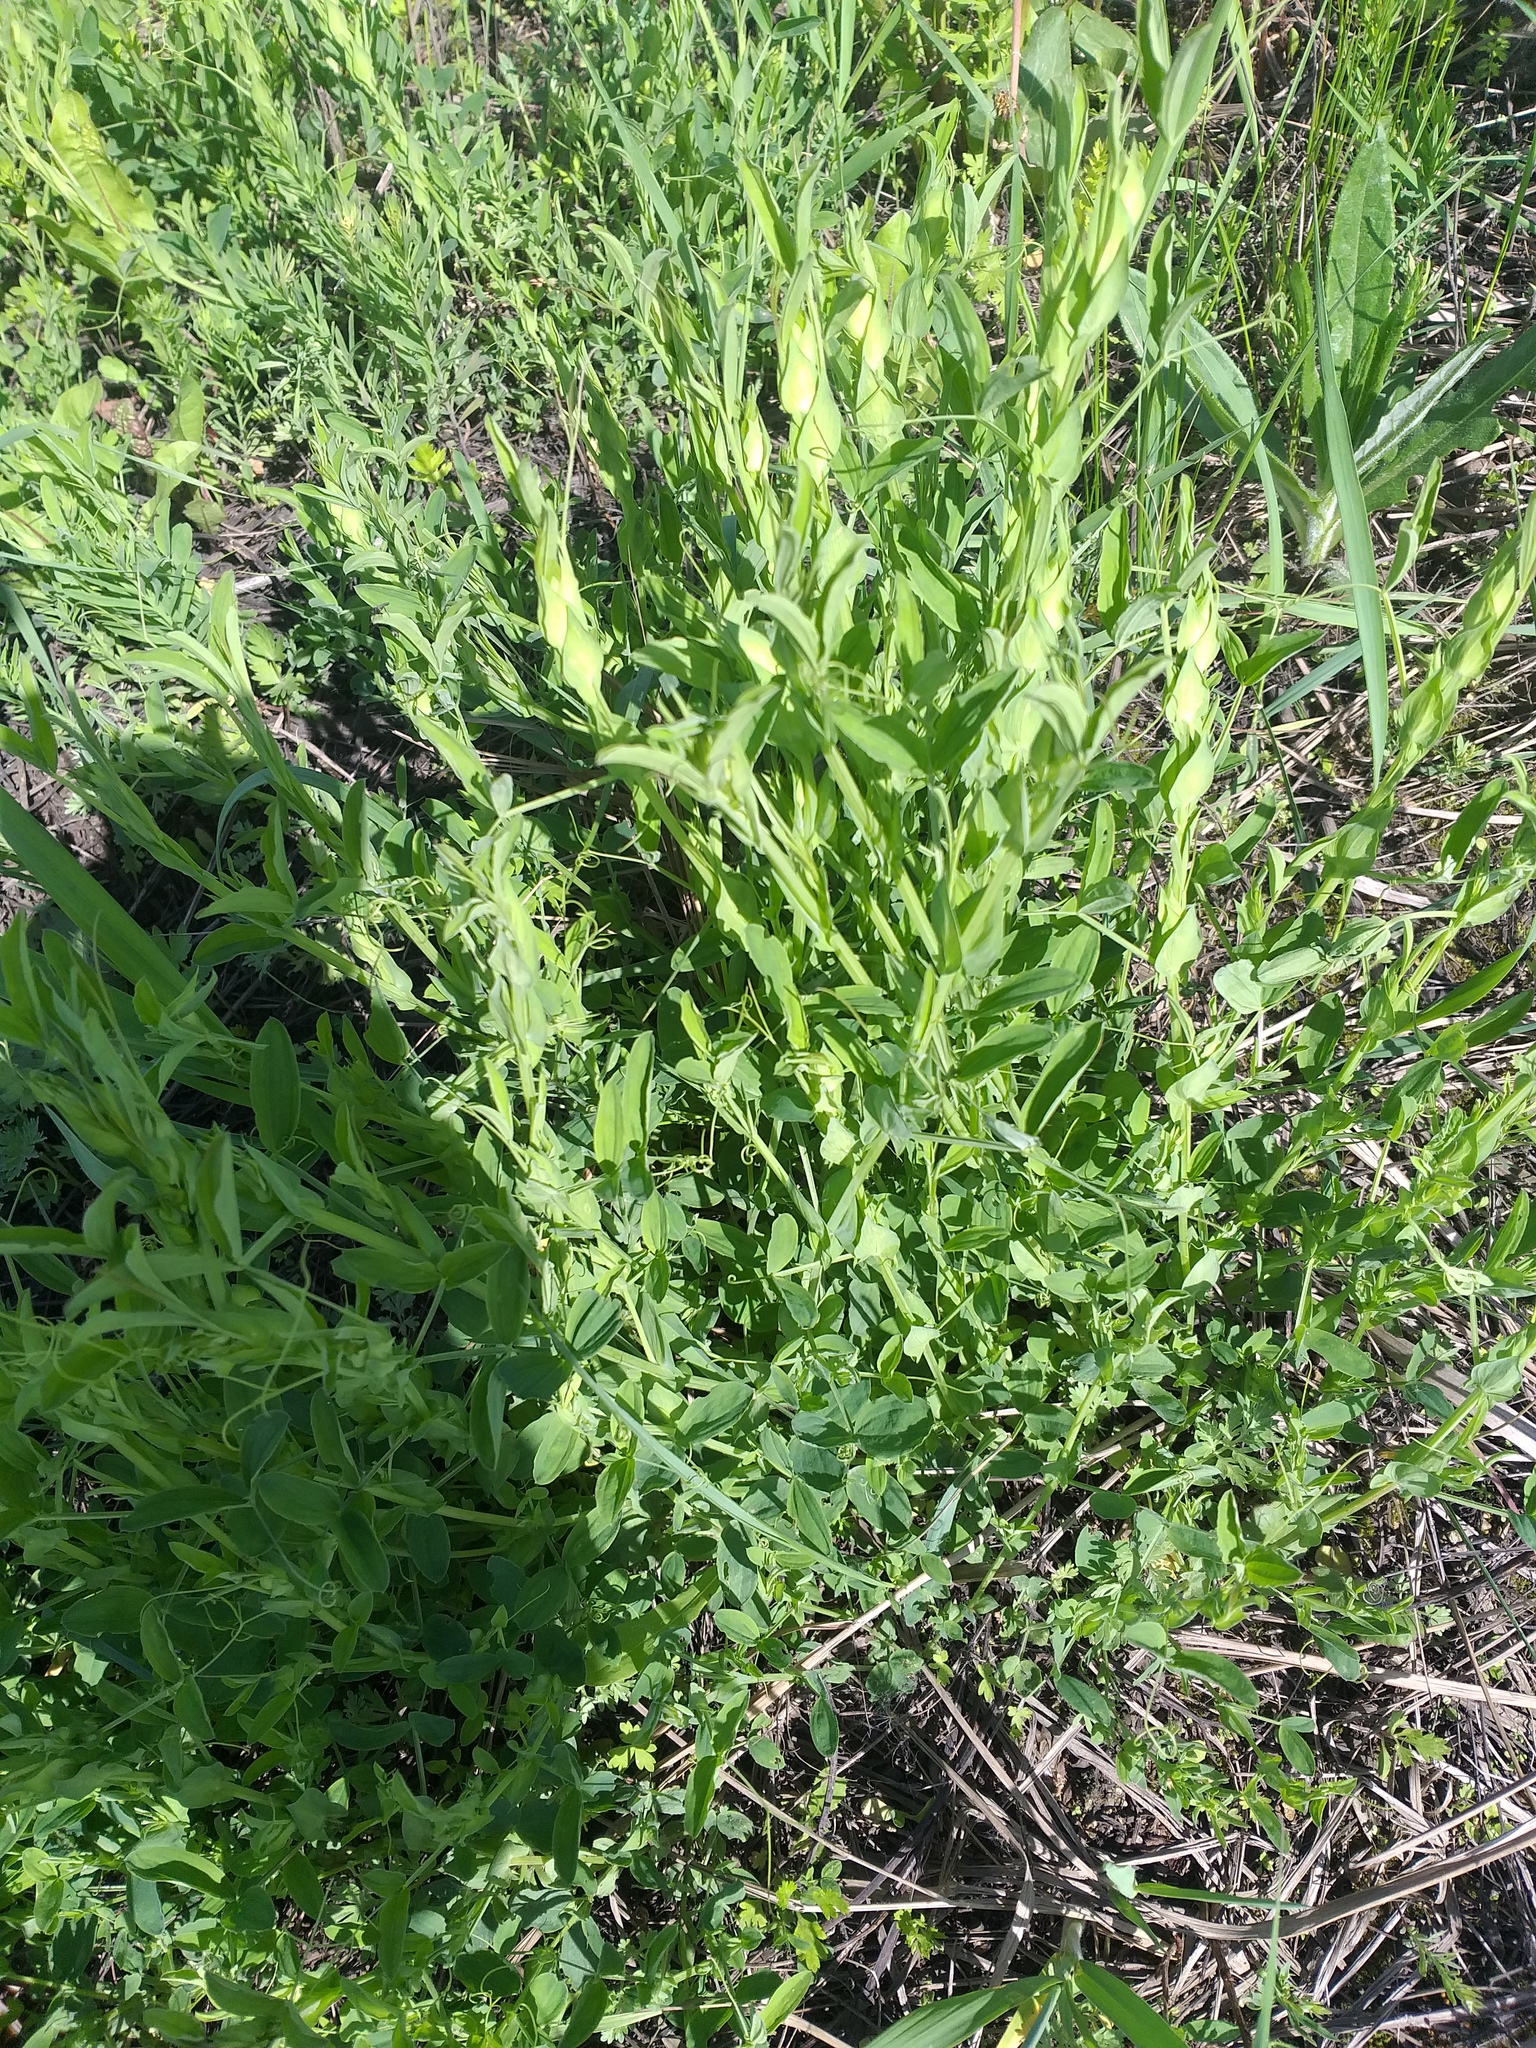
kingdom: Plantae
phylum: Tracheophyta
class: Magnoliopsida
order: Fabales
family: Fabaceae
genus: Lathyrus
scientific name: Lathyrus pratensis
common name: Meadow vetchling
